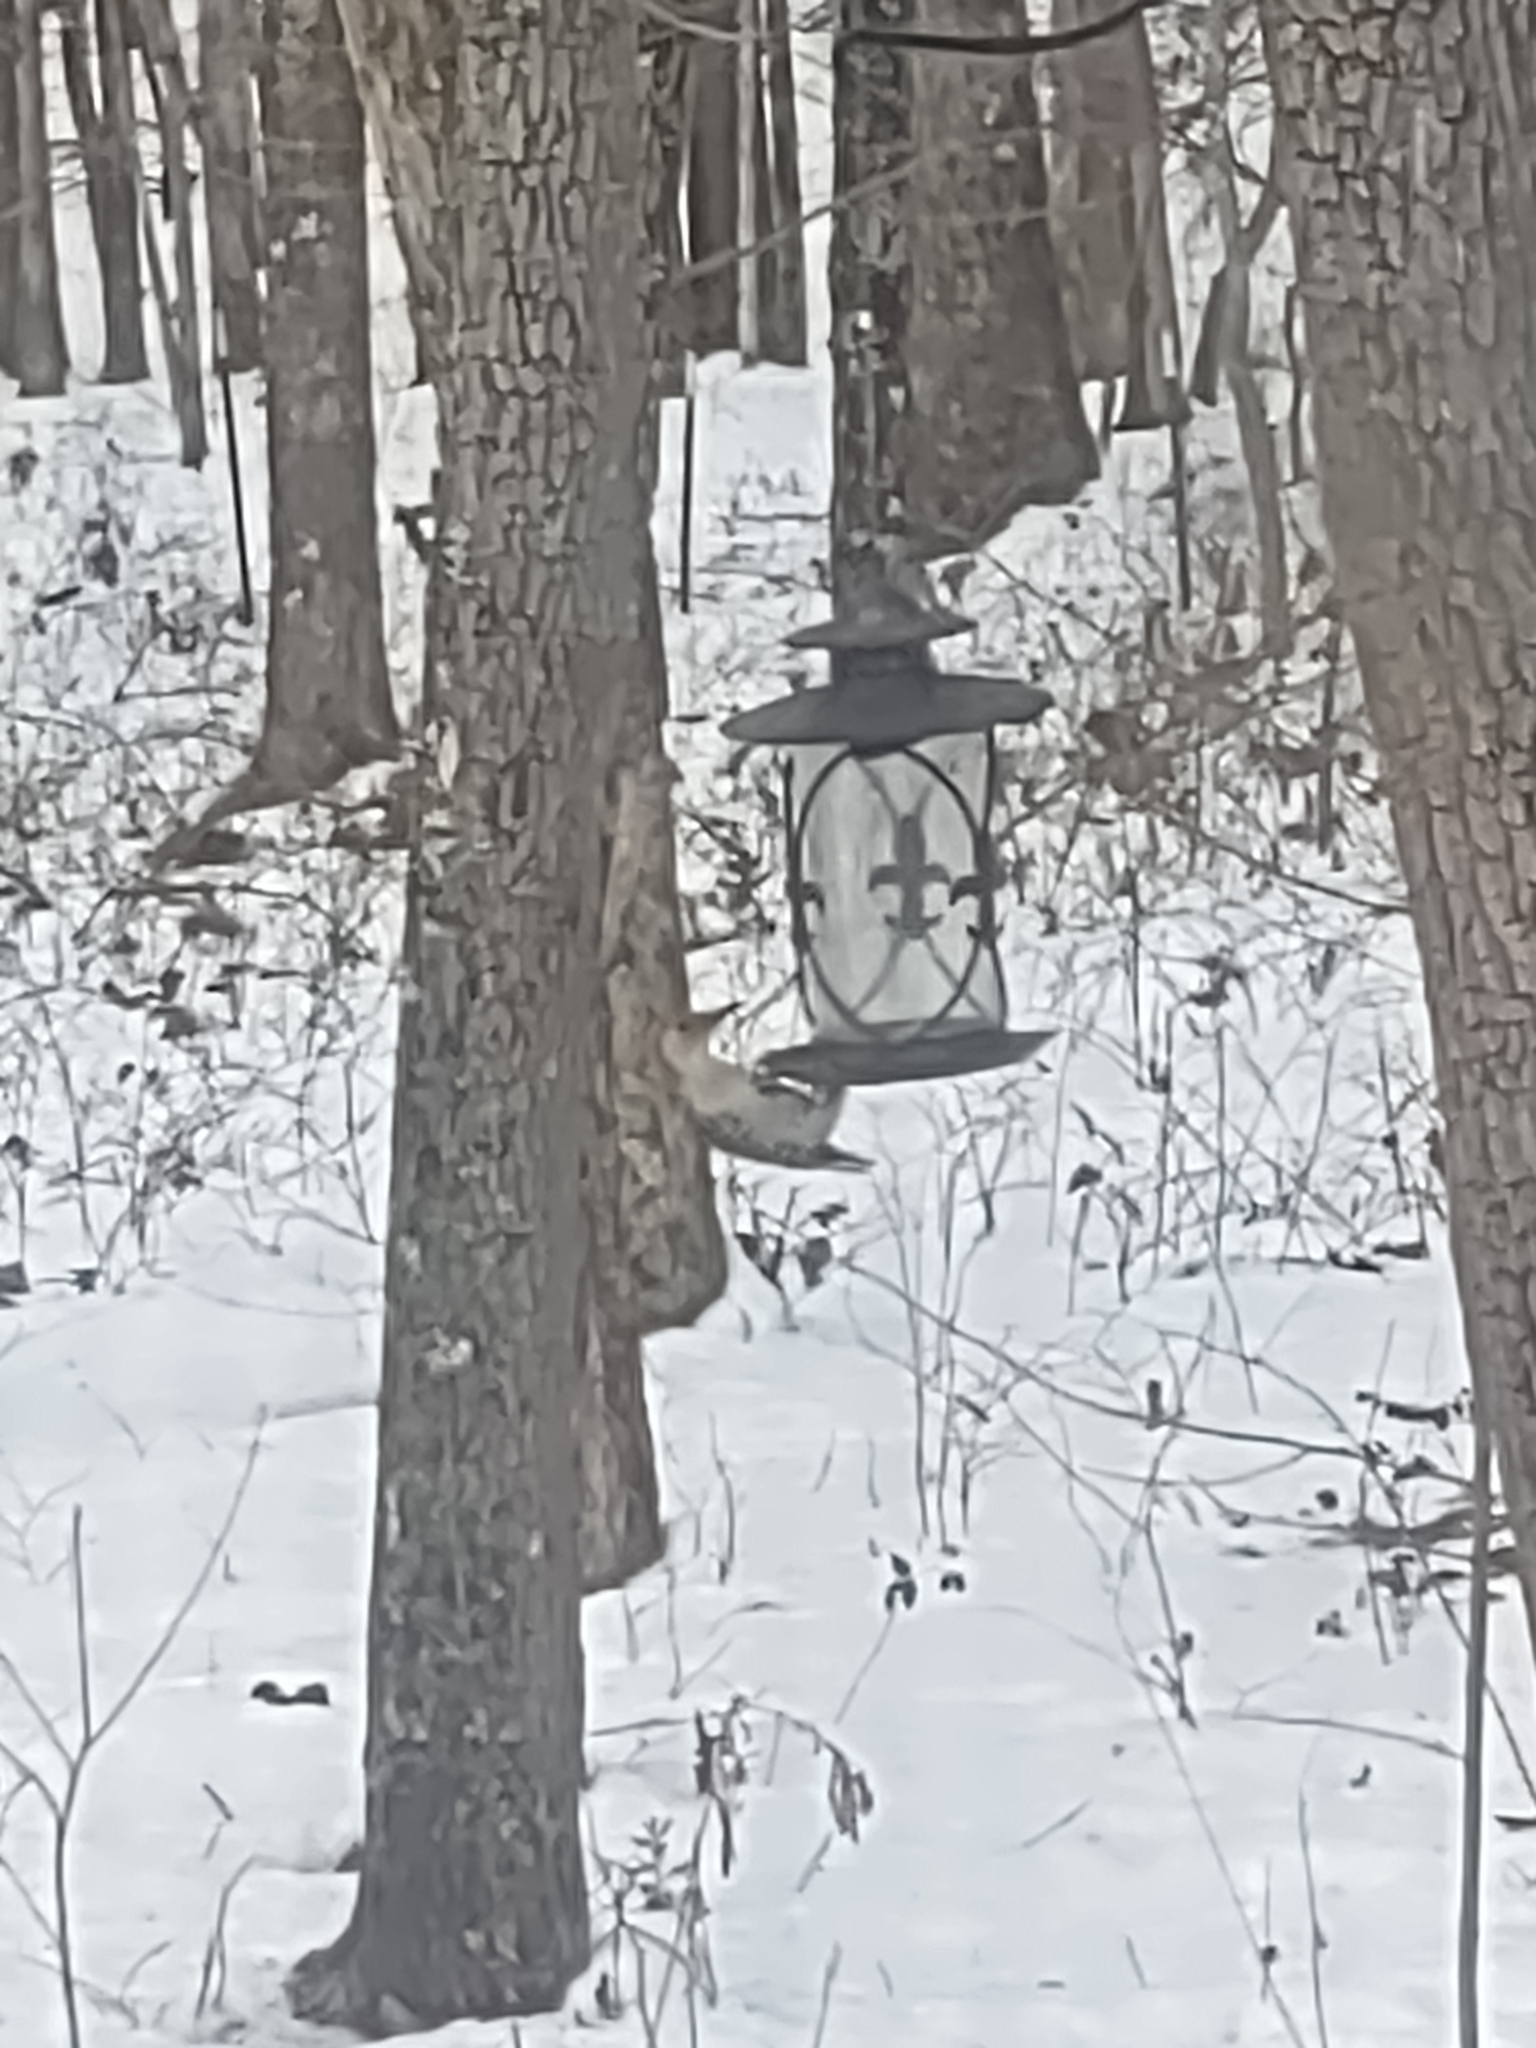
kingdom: Animalia
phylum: Chordata
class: Aves
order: Piciformes
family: Picidae
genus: Melanerpes
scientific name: Melanerpes carolinus
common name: Red-bellied woodpecker
